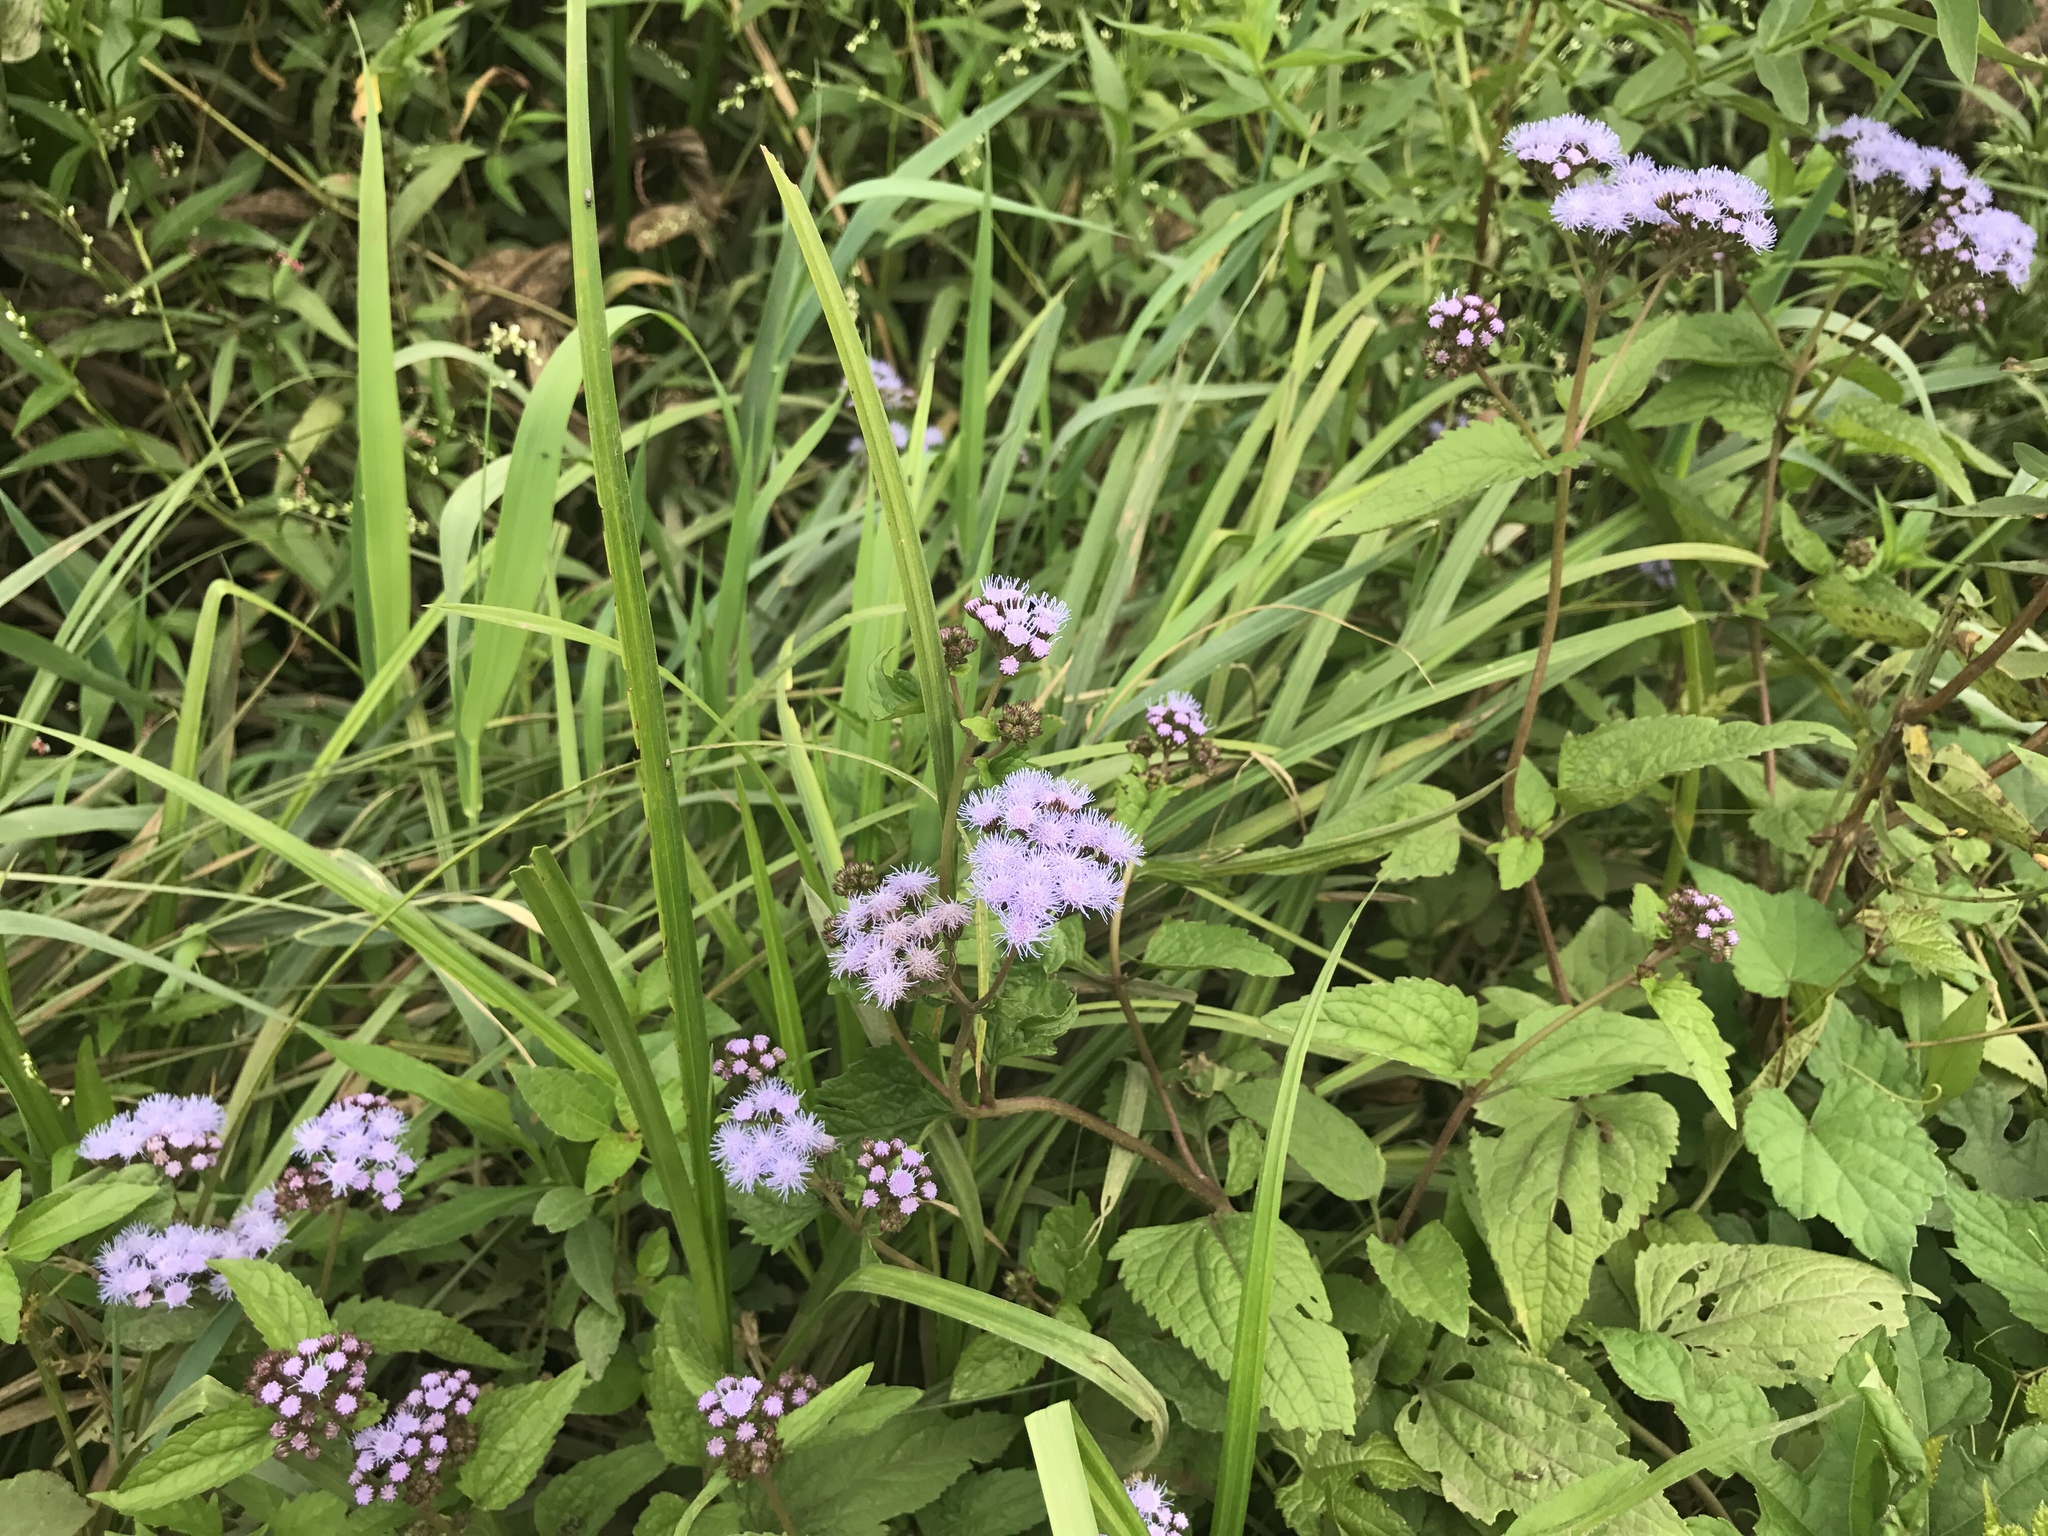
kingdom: Plantae
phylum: Tracheophyta
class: Magnoliopsida
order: Asterales
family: Asteraceae
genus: Conoclinium
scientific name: Conoclinium coelestinum
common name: Blue mistflower
